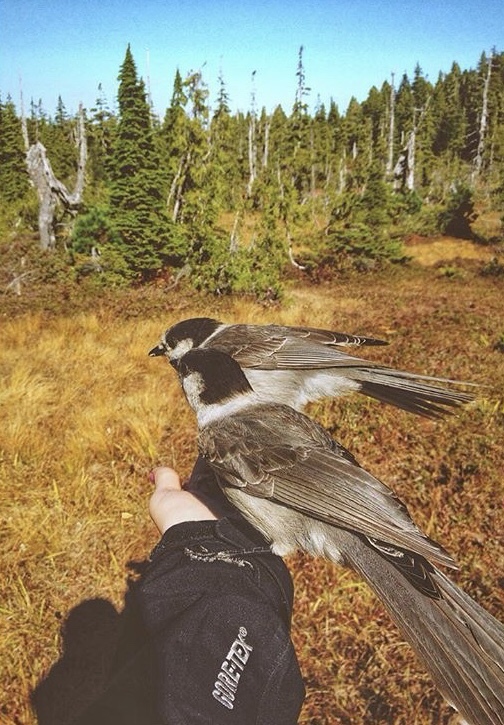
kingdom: Animalia
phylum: Chordata
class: Aves
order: Passeriformes
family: Corvidae
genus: Perisoreus
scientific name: Perisoreus canadensis
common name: Gray jay
